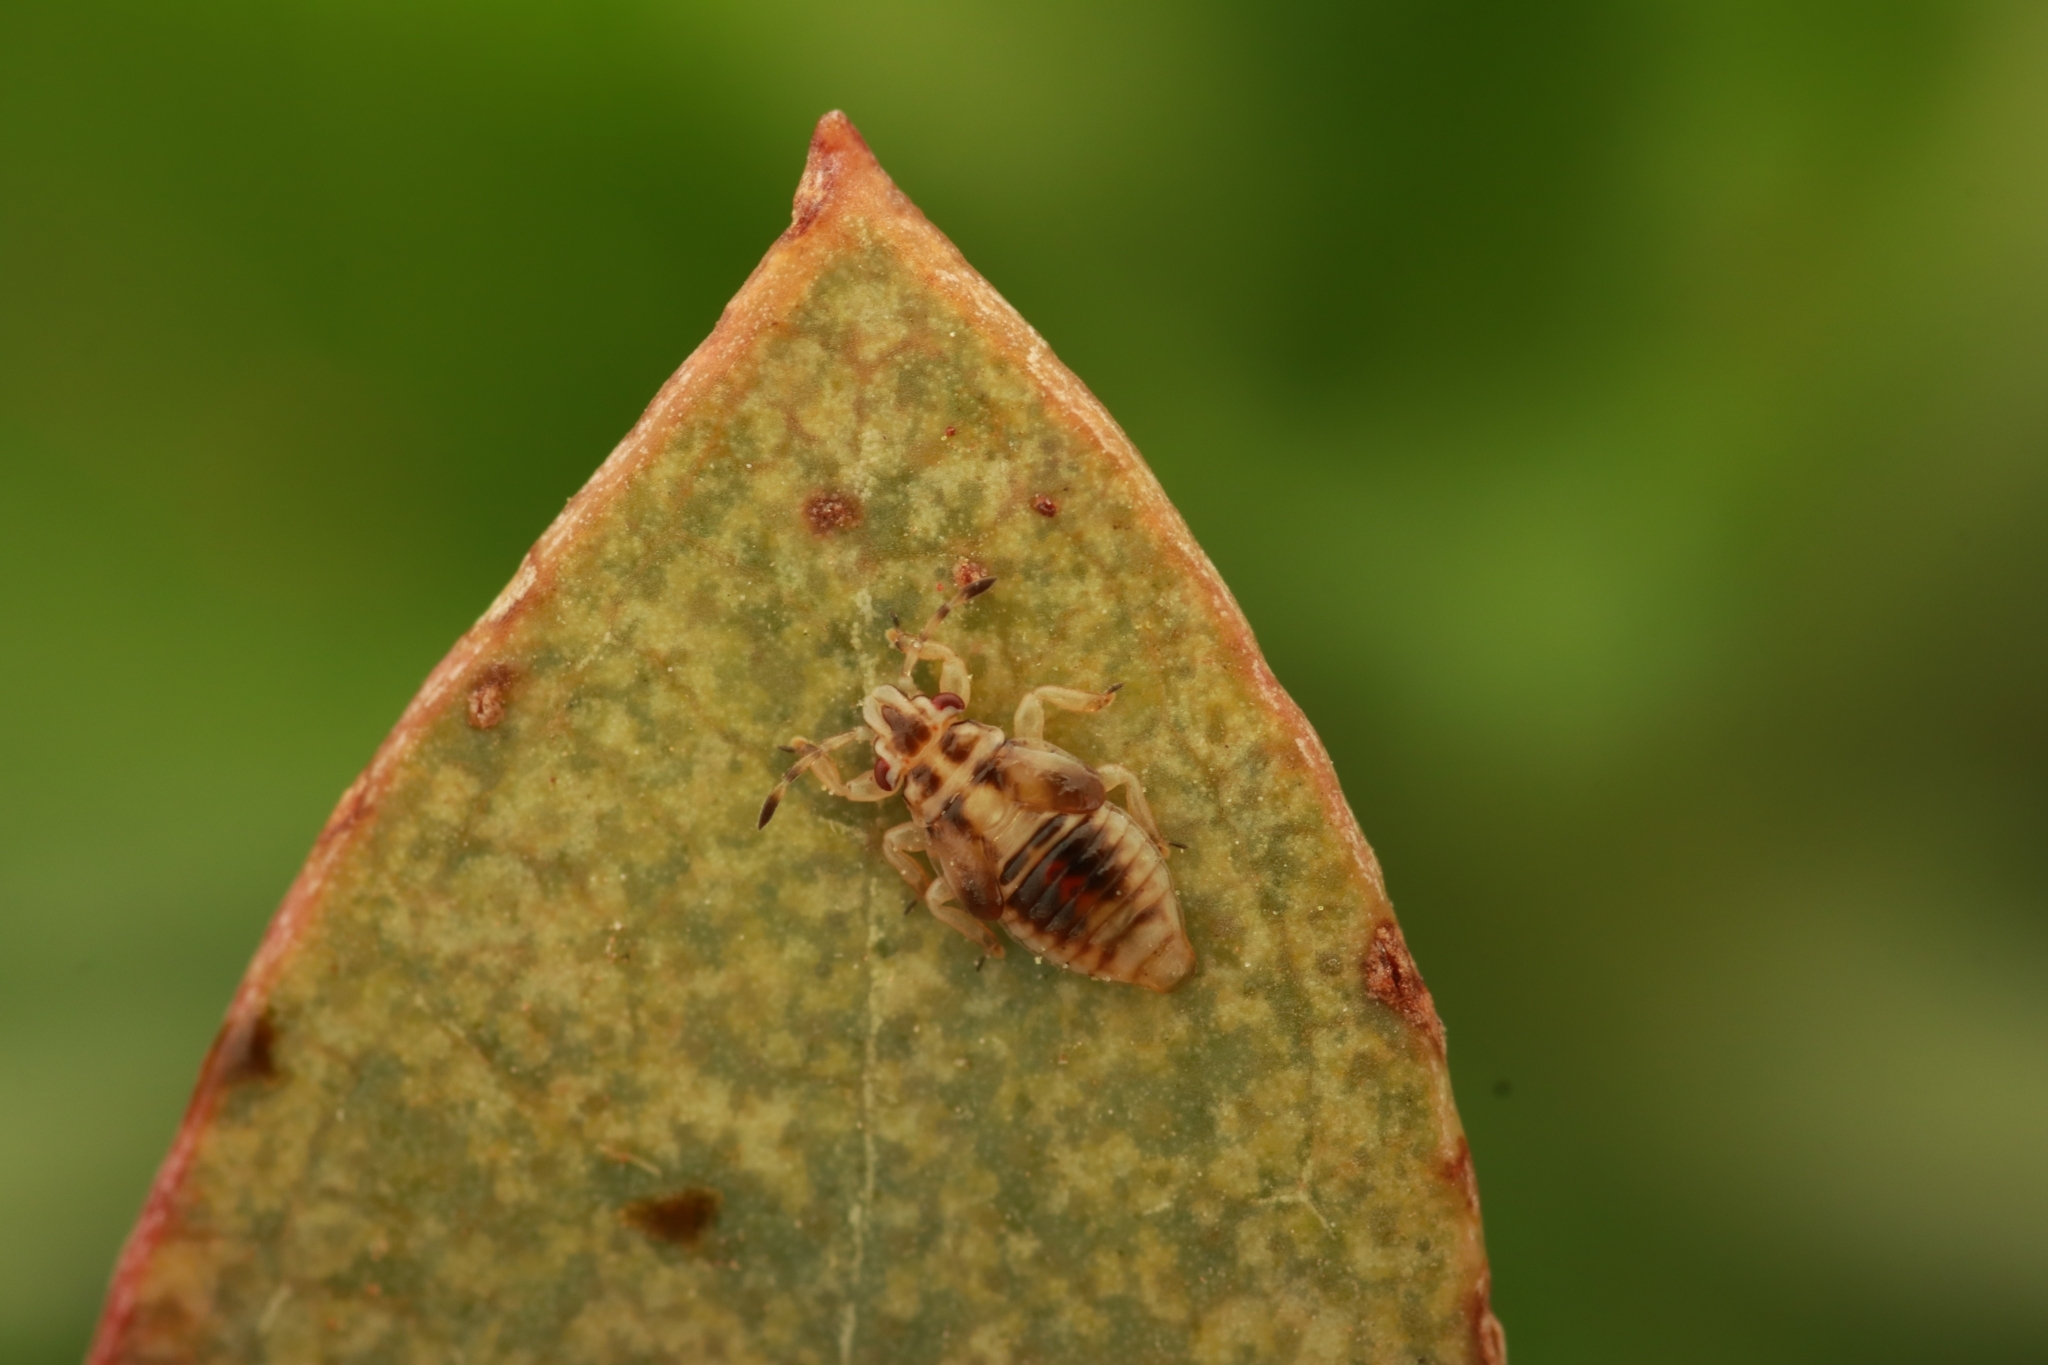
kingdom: Animalia
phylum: Arthropoda
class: Insecta
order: Hemiptera
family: Thaumastocoridae
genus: Thaumastocoris
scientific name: Thaumastocoris peregrinus
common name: Bronze bug
